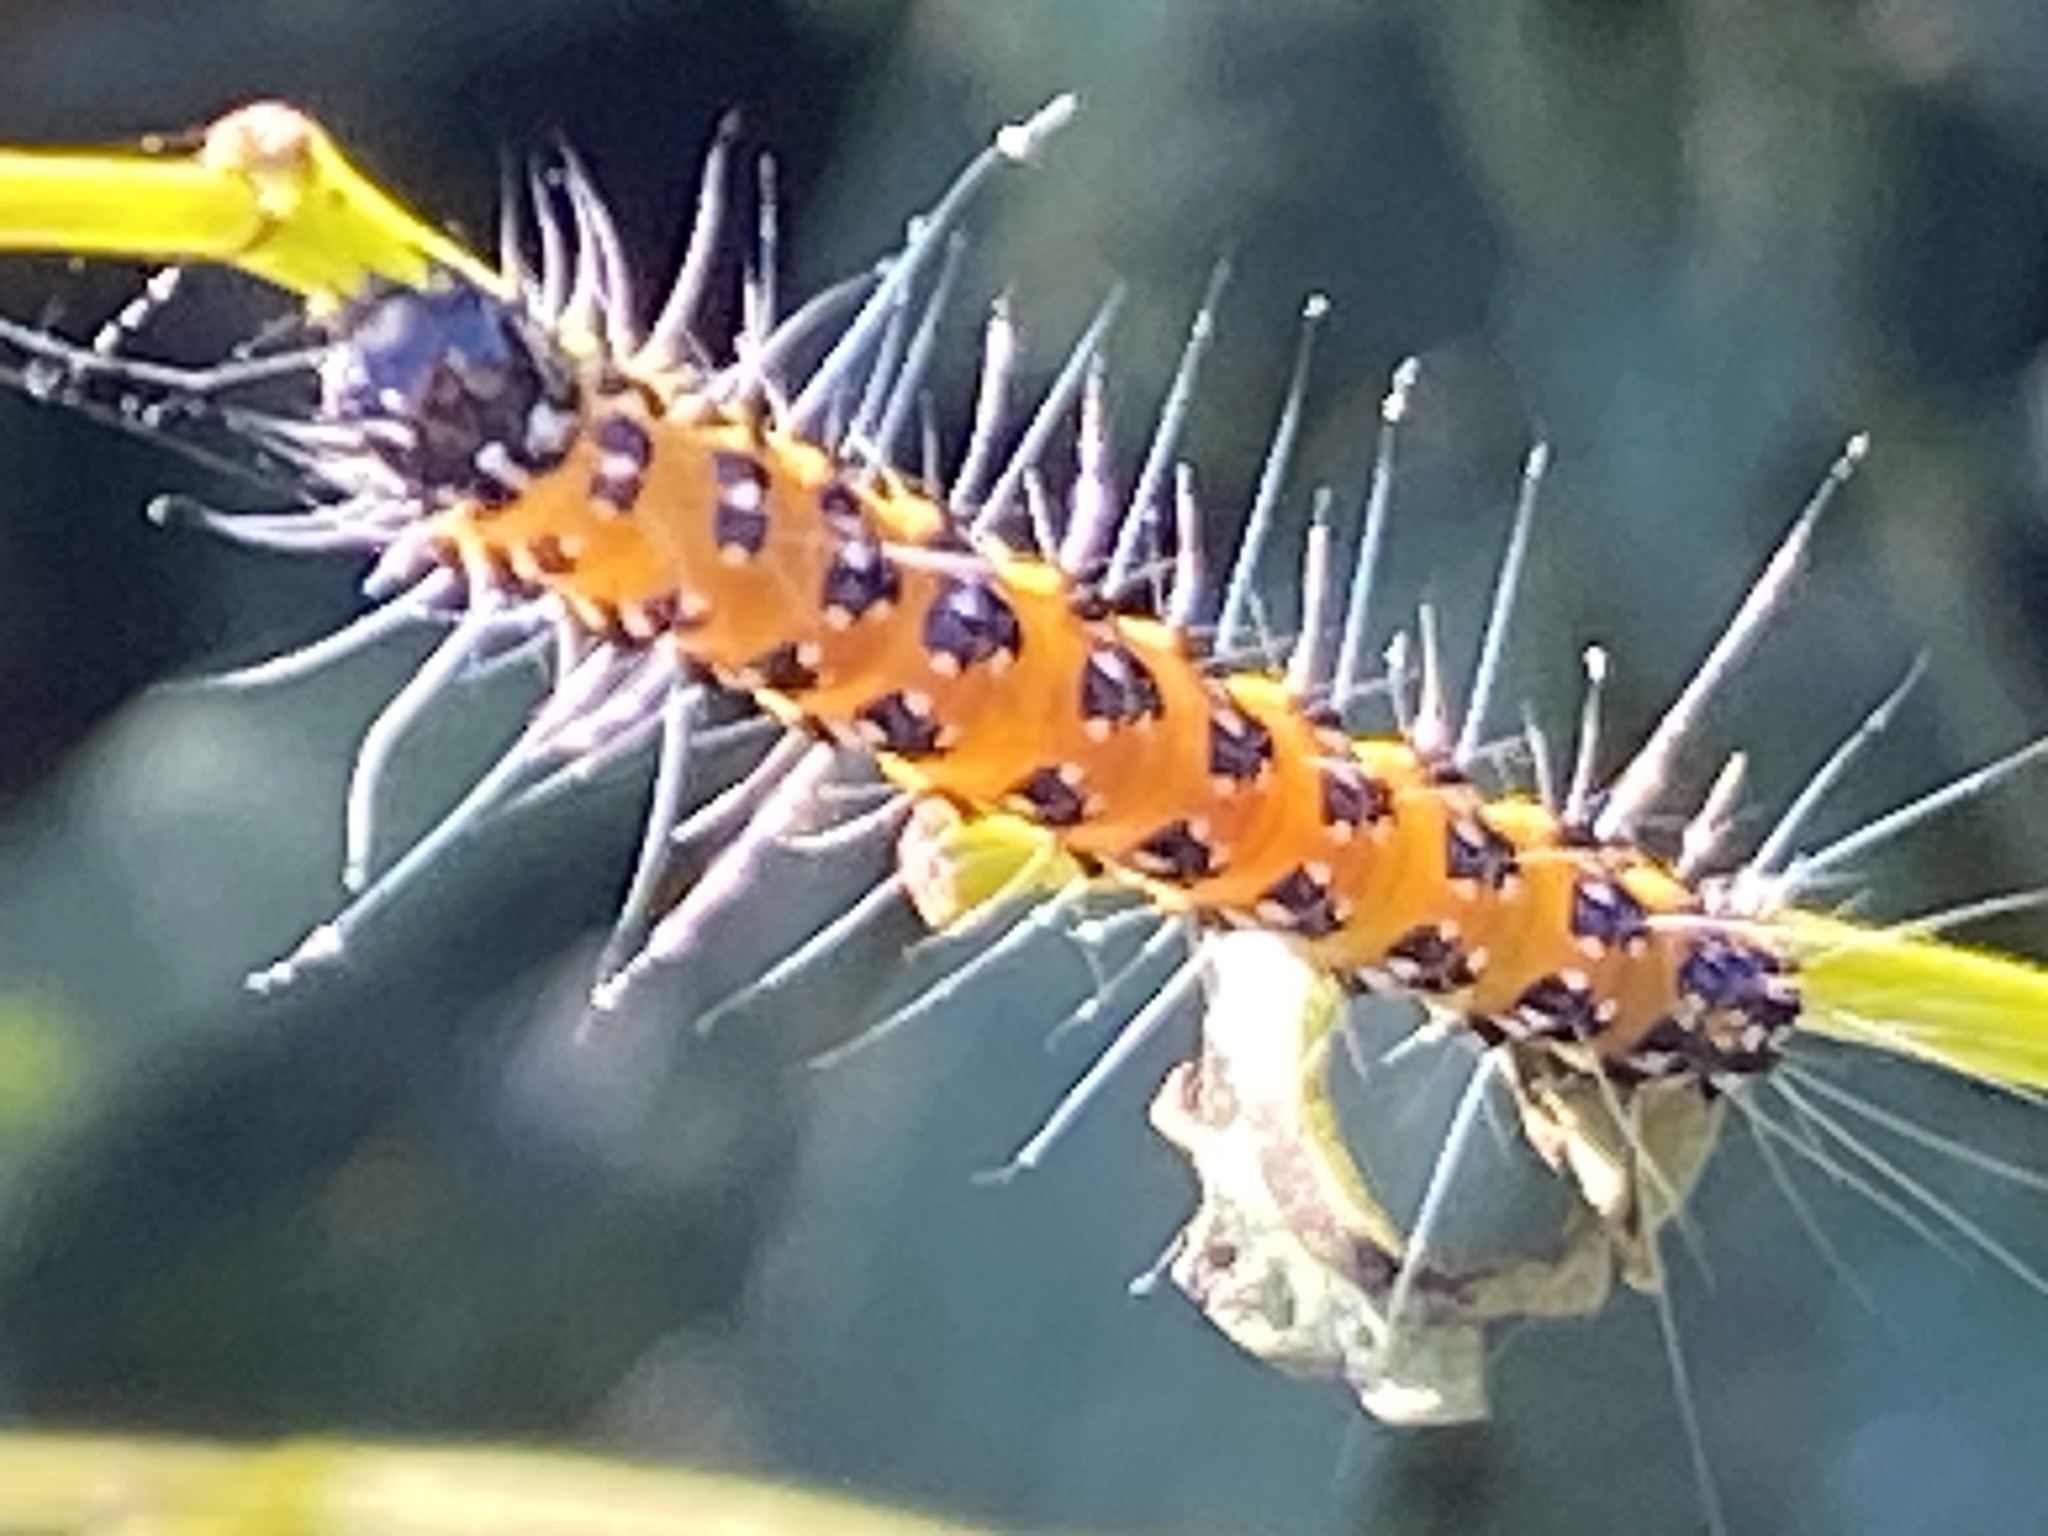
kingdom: Animalia
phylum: Arthropoda
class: Insecta
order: Lepidoptera
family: Crambidae
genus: Uresiphita
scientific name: Uresiphita reversalis
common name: Genista broom moth
